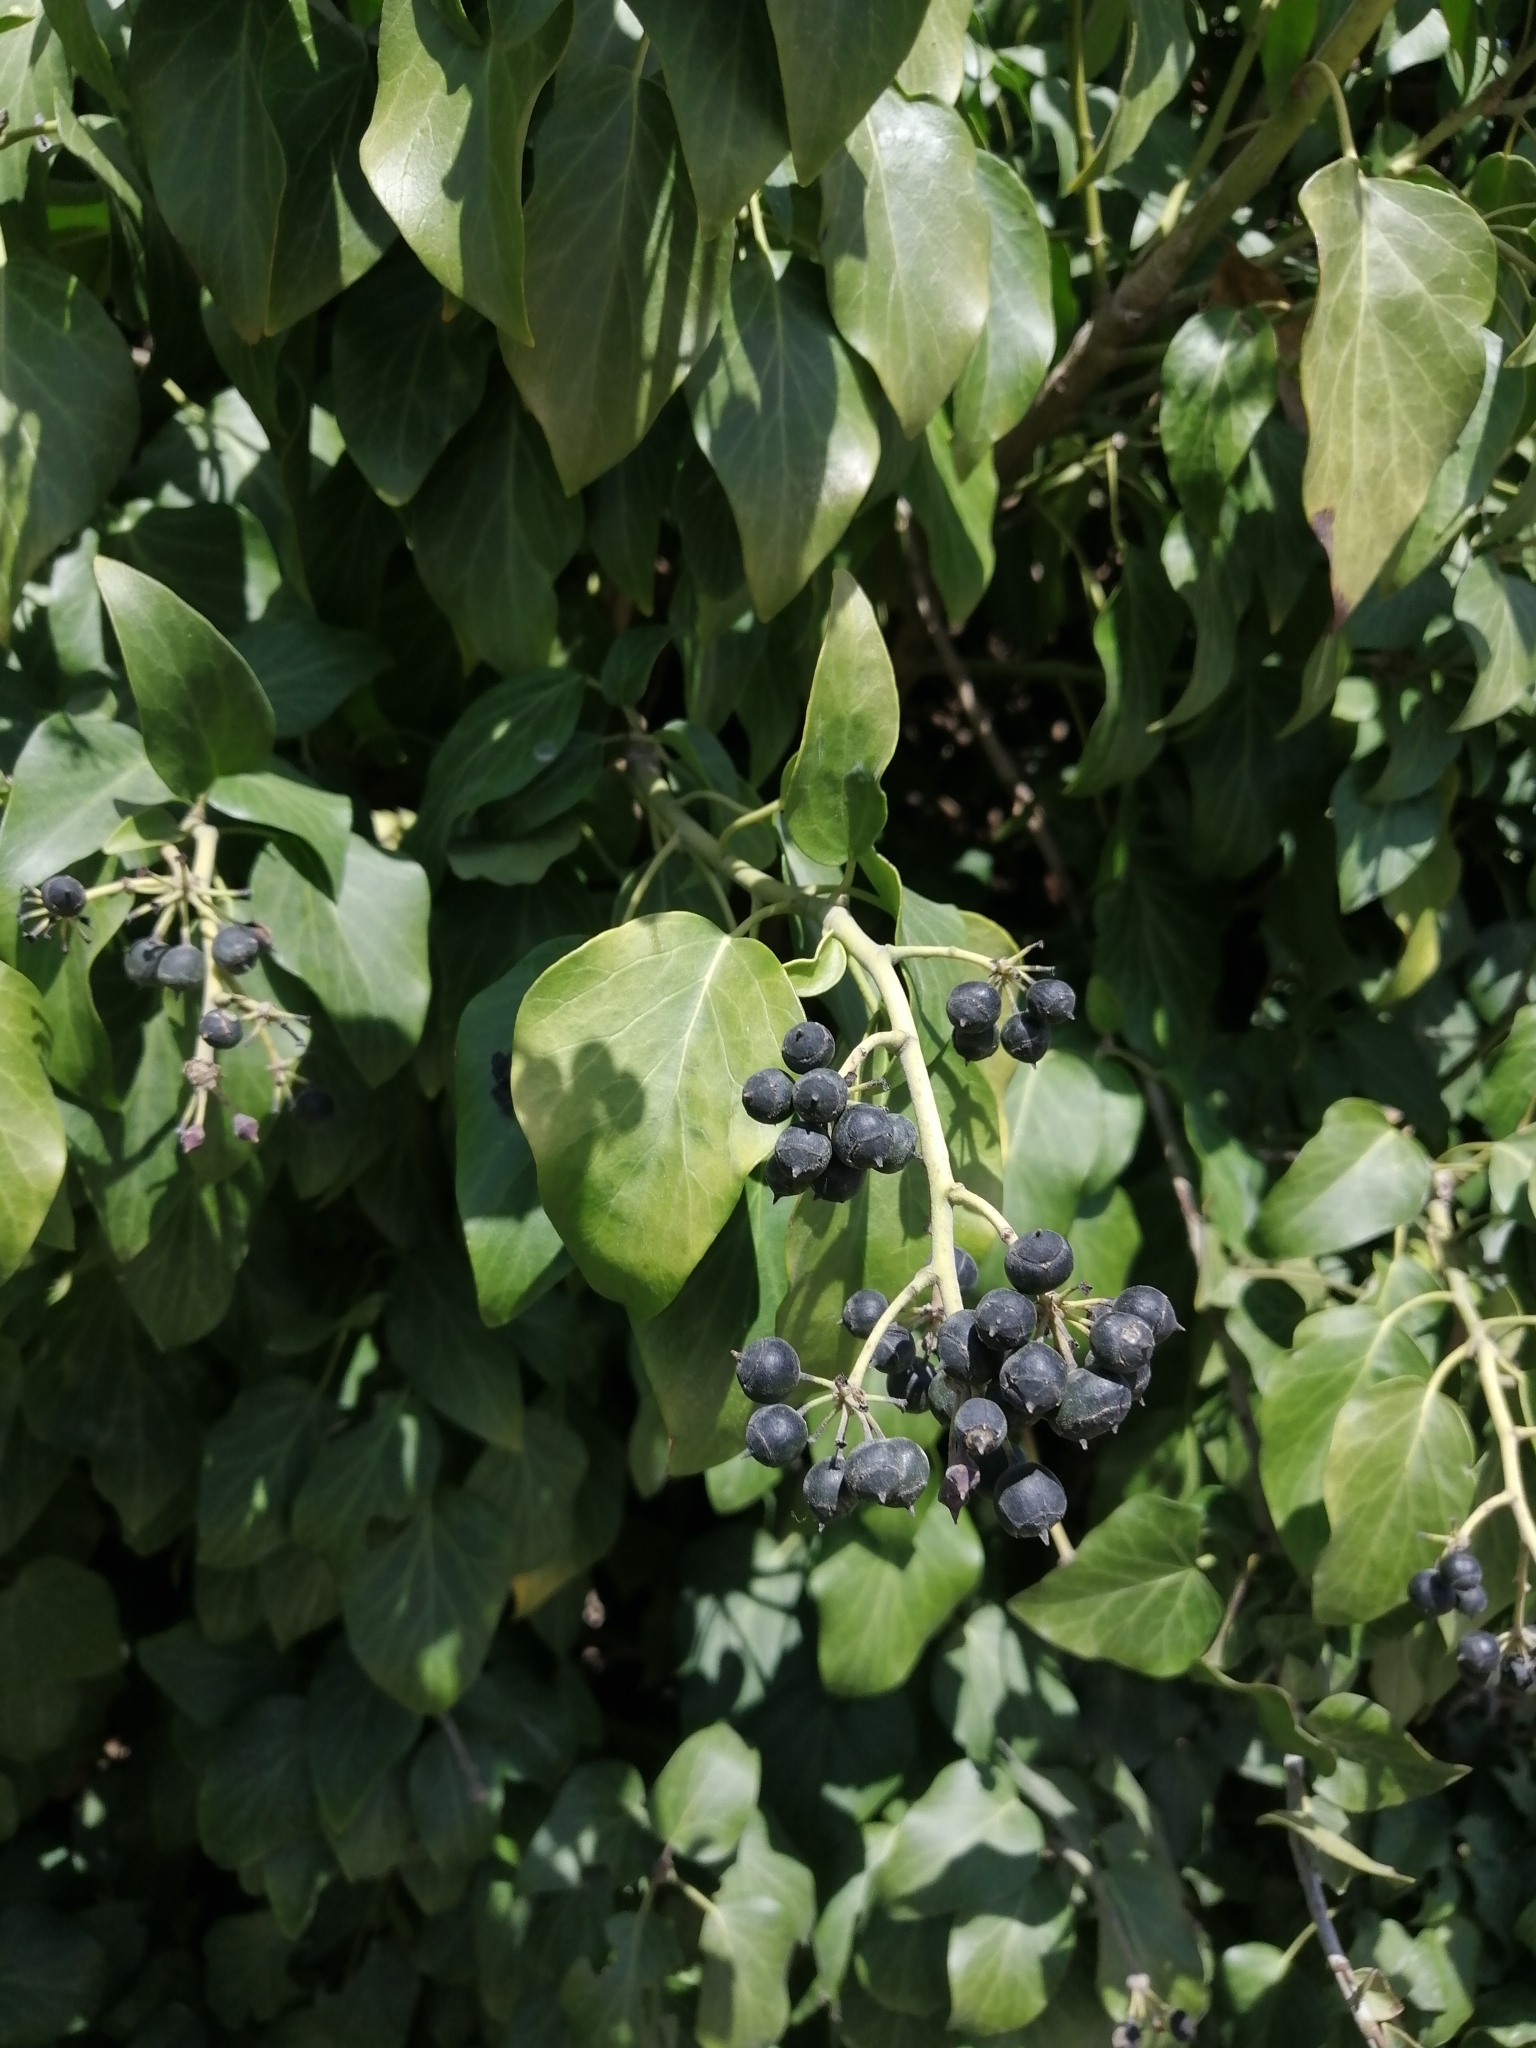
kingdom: Plantae
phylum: Tracheophyta
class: Magnoliopsida
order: Apiales
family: Araliaceae
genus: Hedera
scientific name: Hedera helix
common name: Ivy
